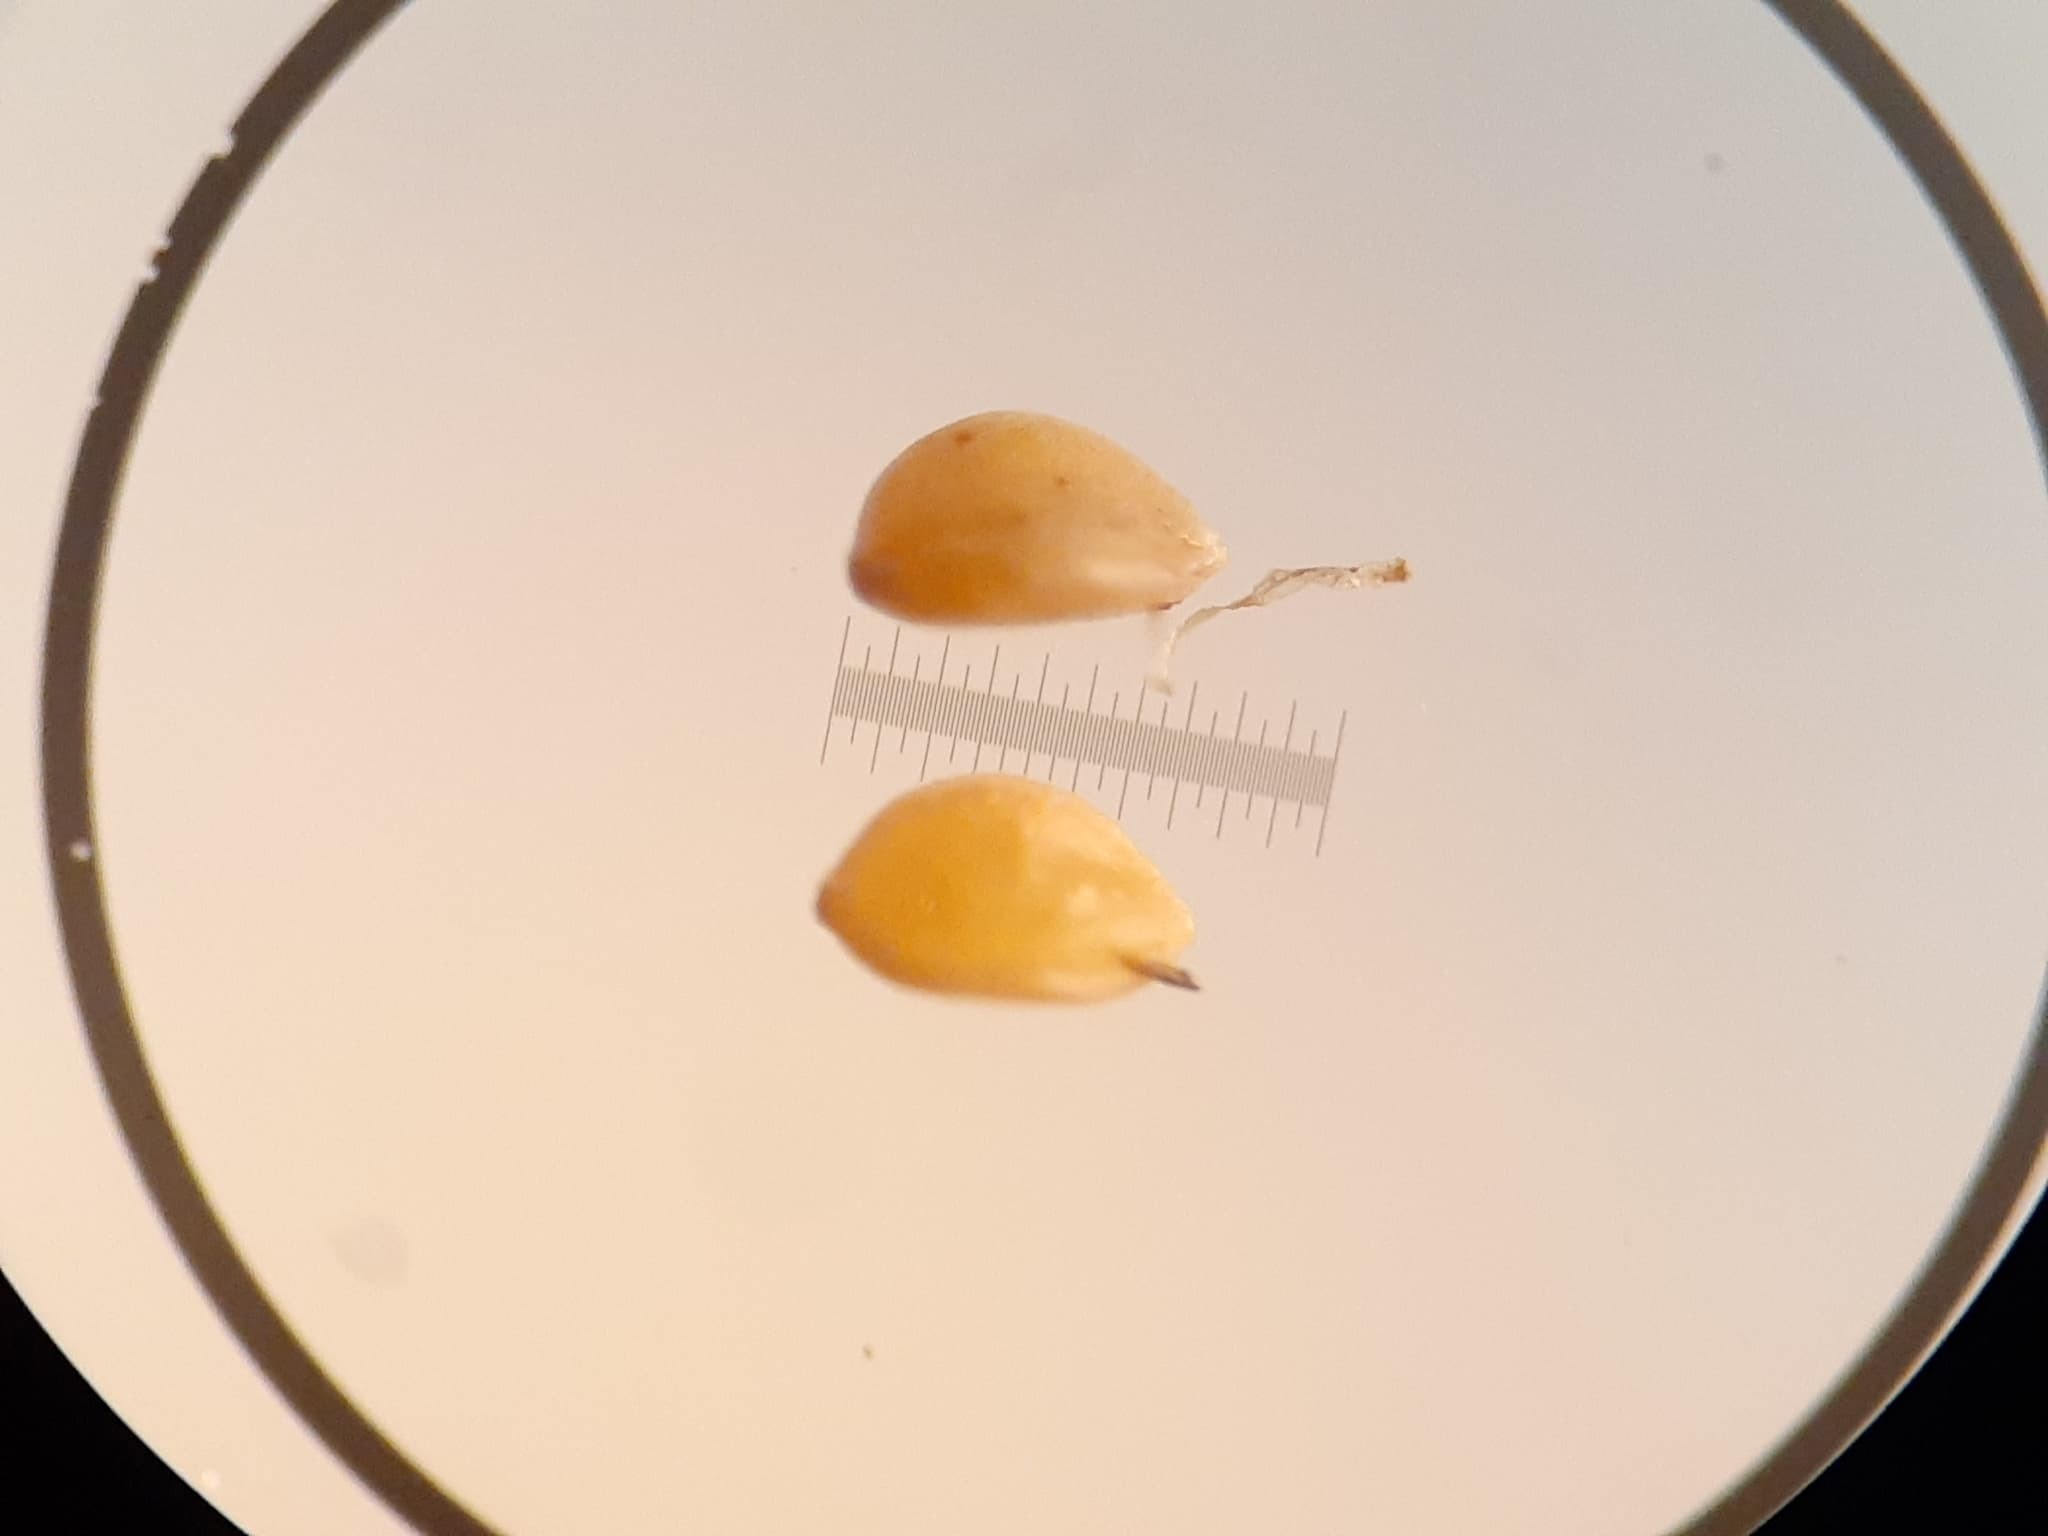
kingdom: Plantae
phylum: Tracheophyta
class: Liliopsida
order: Poales
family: Cyperaceae
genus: Cyperus
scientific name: Cyperus erythrorhizos
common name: Red-root flat sedge
